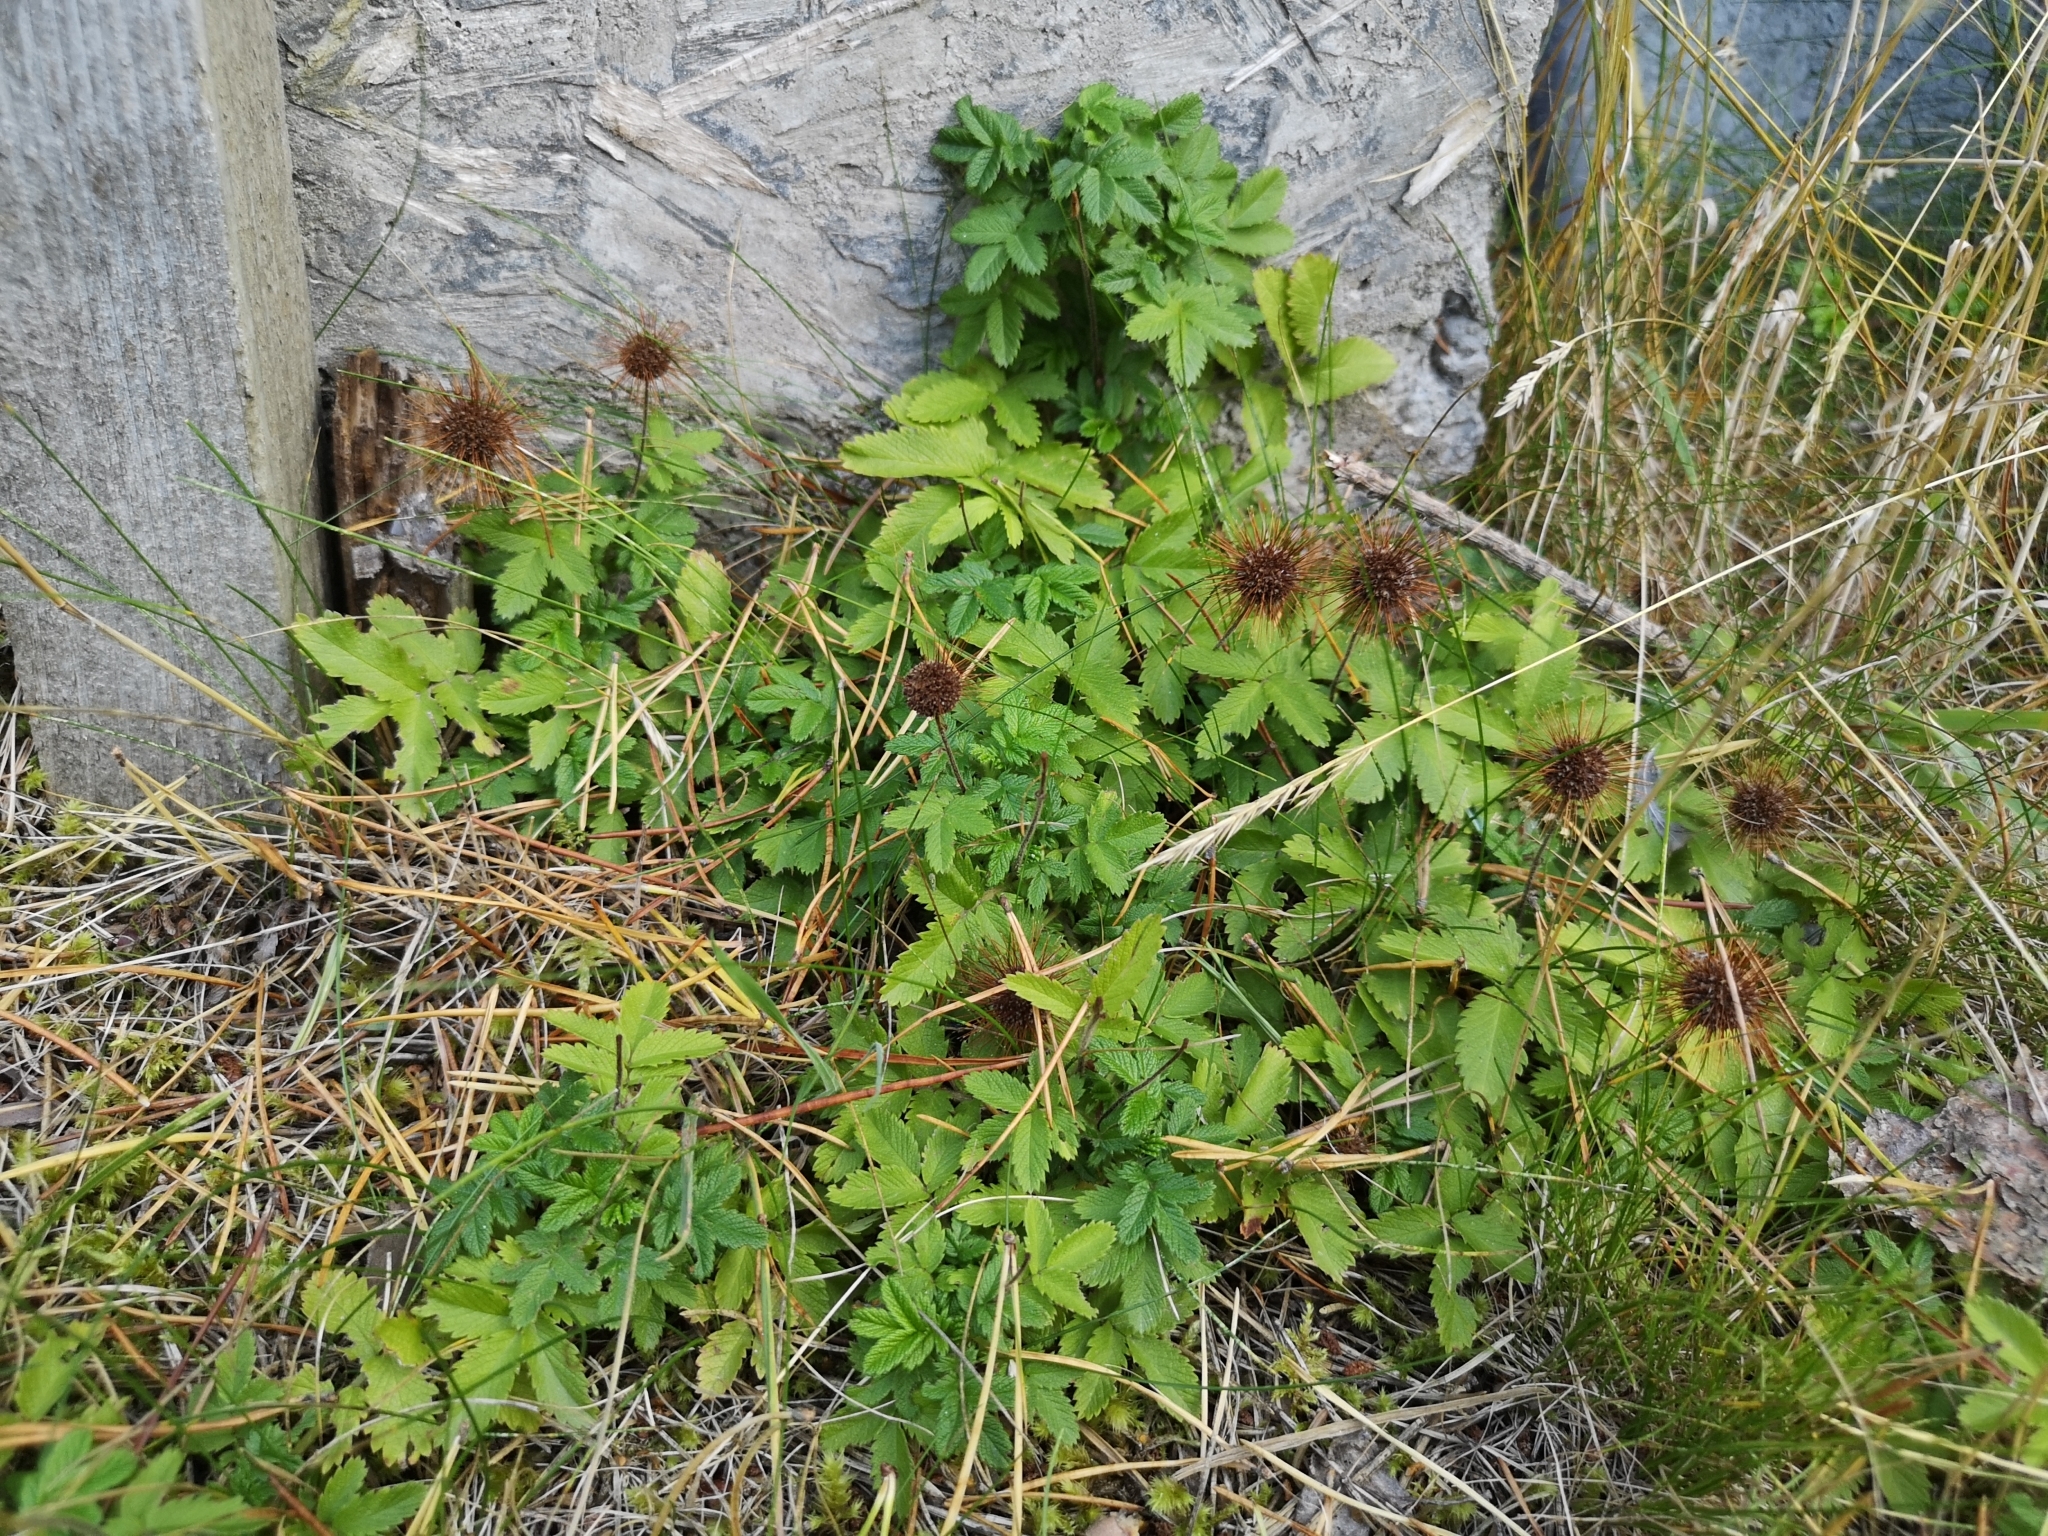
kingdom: Plantae
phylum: Tracheophyta
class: Magnoliopsida
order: Rosales
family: Rosaceae
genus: Acaena
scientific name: Acaena ovalifolia
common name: Two-spined acaena
